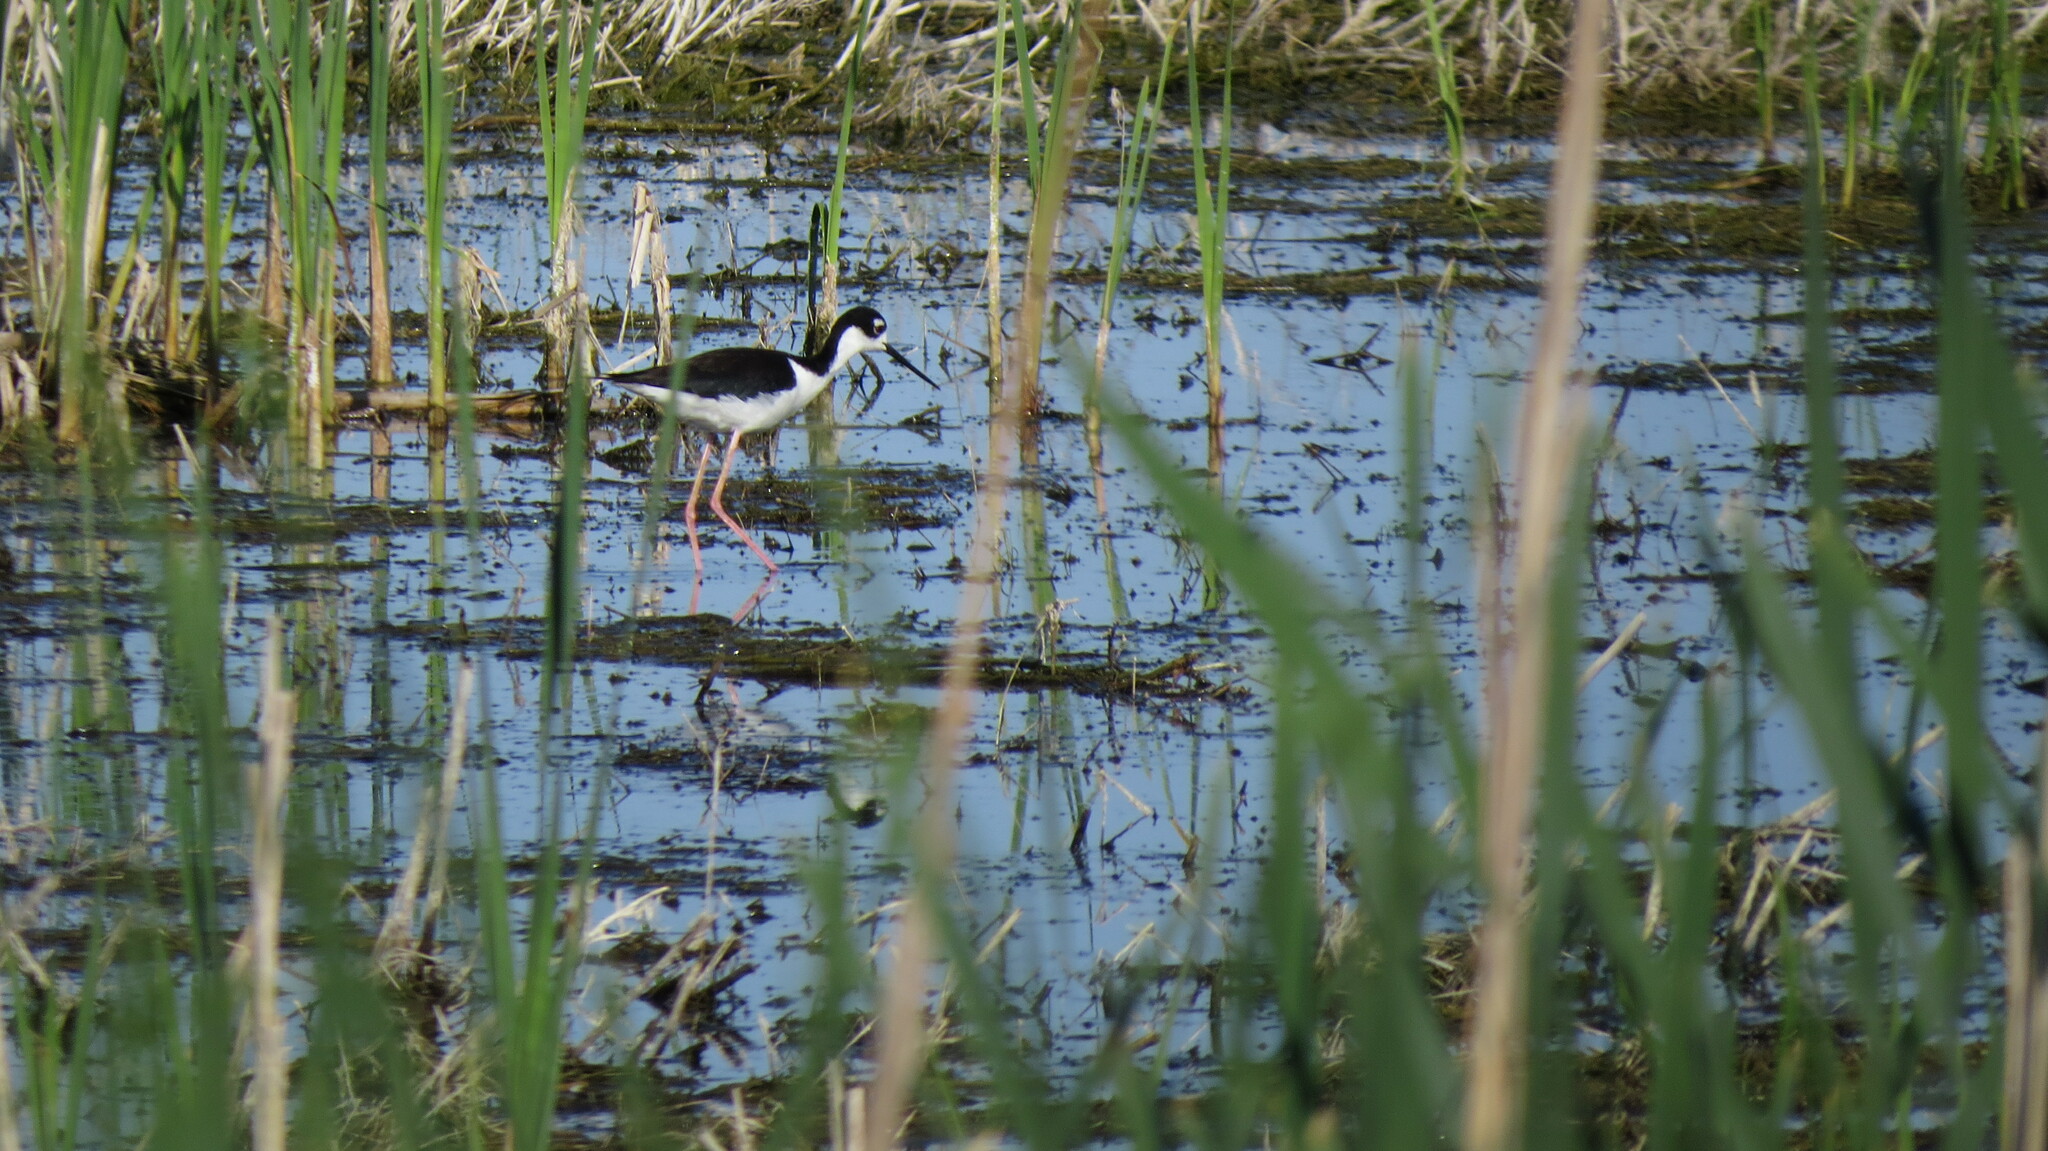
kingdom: Animalia
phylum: Chordata
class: Aves
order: Charadriiformes
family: Recurvirostridae
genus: Himantopus
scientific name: Himantopus mexicanus
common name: Black-necked stilt
